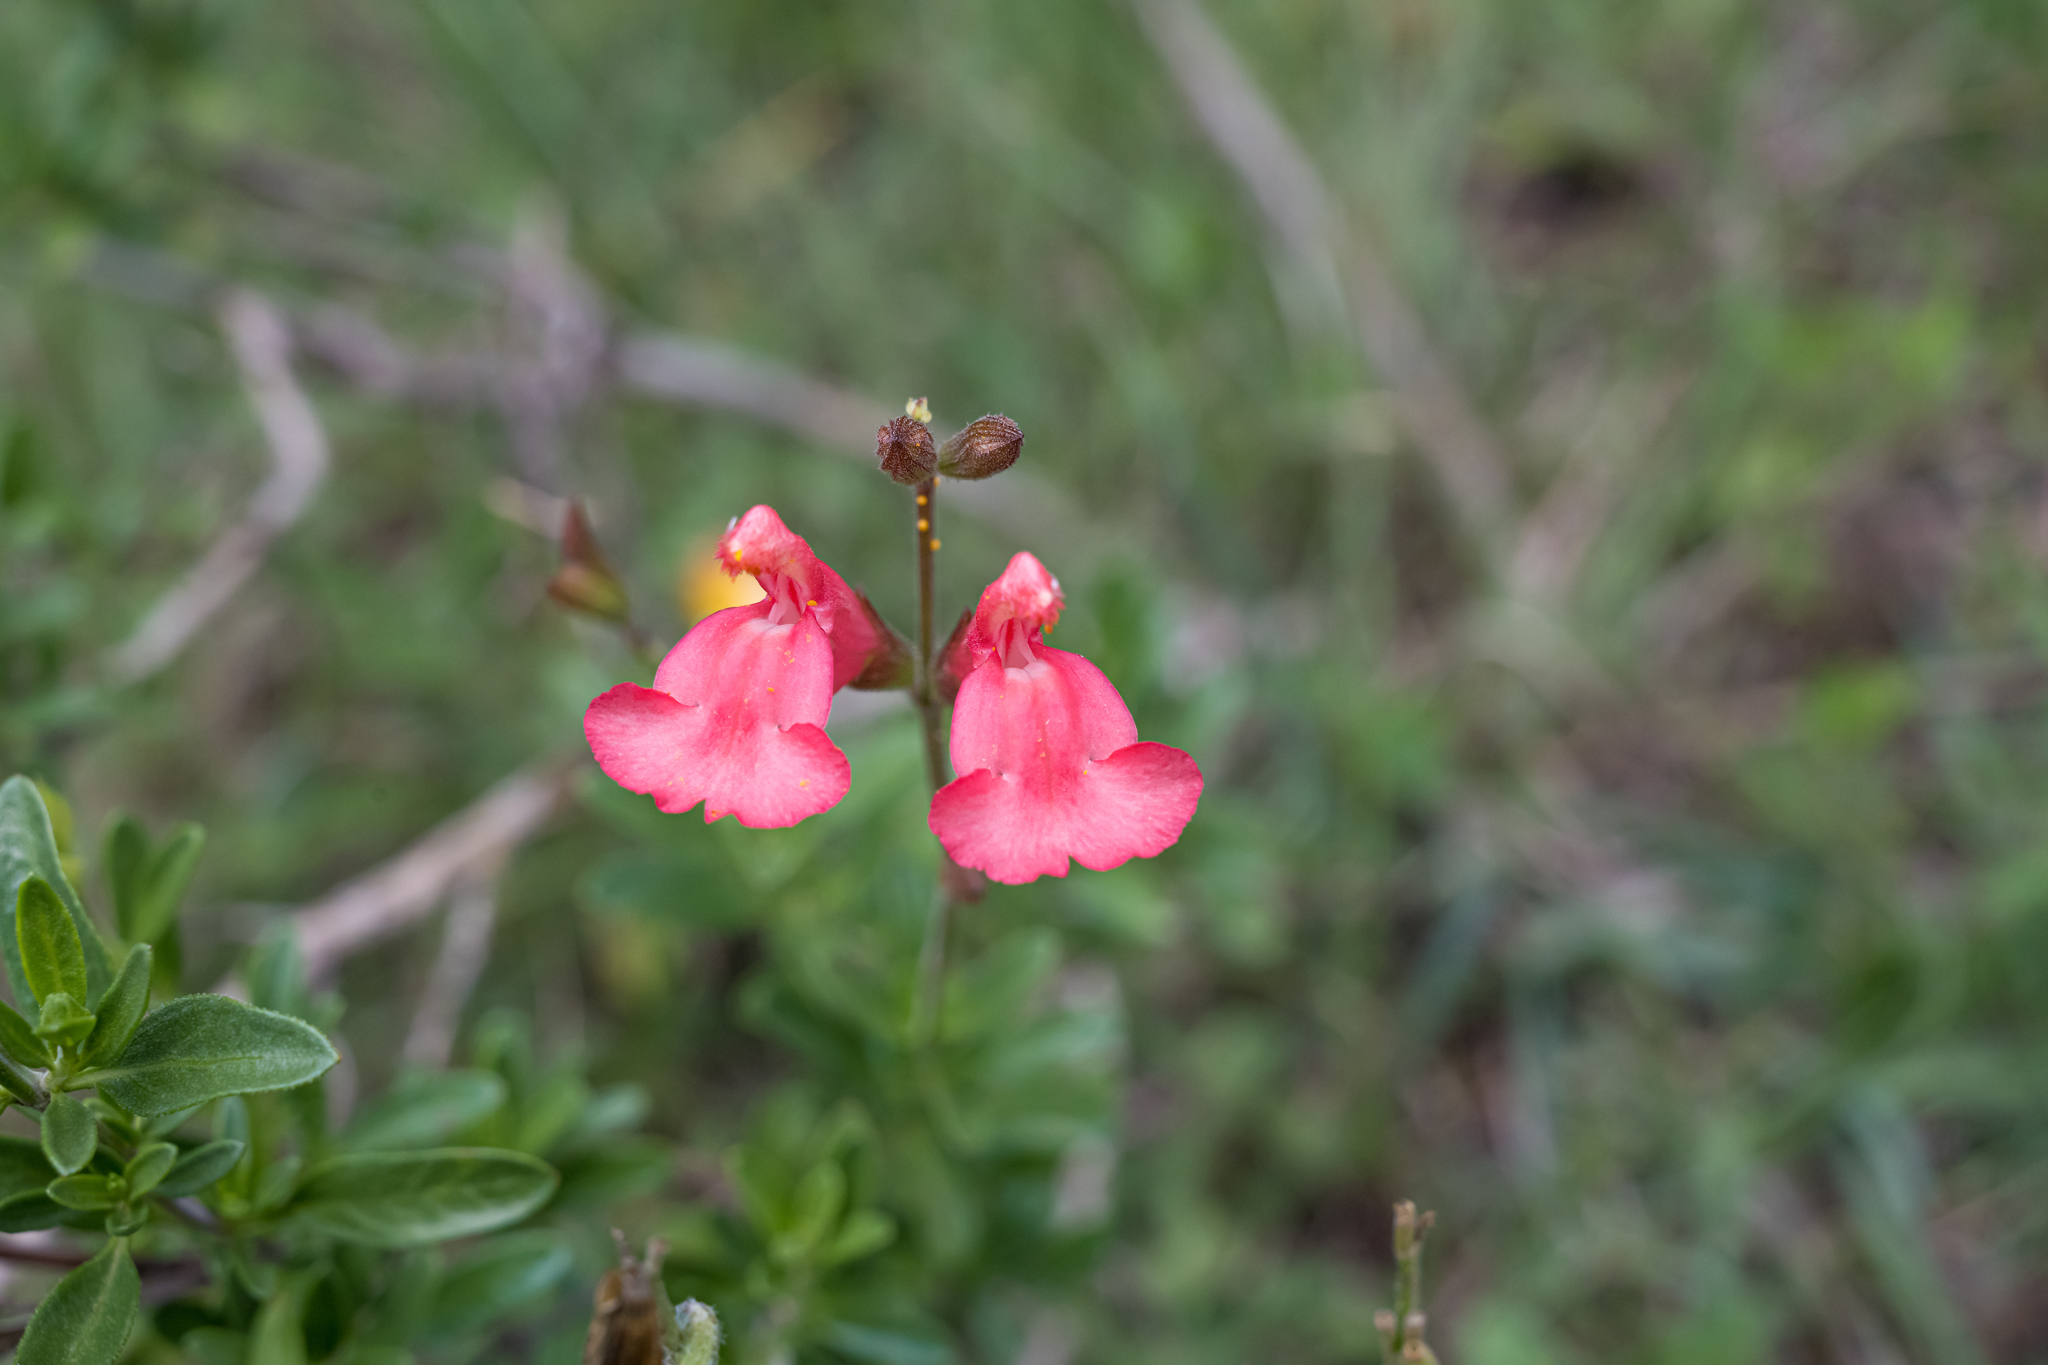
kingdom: Plantae
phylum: Tracheophyta
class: Magnoliopsida
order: Lamiales
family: Lamiaceae
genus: Salvia
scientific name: Salvia greggii
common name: Autumn sage
